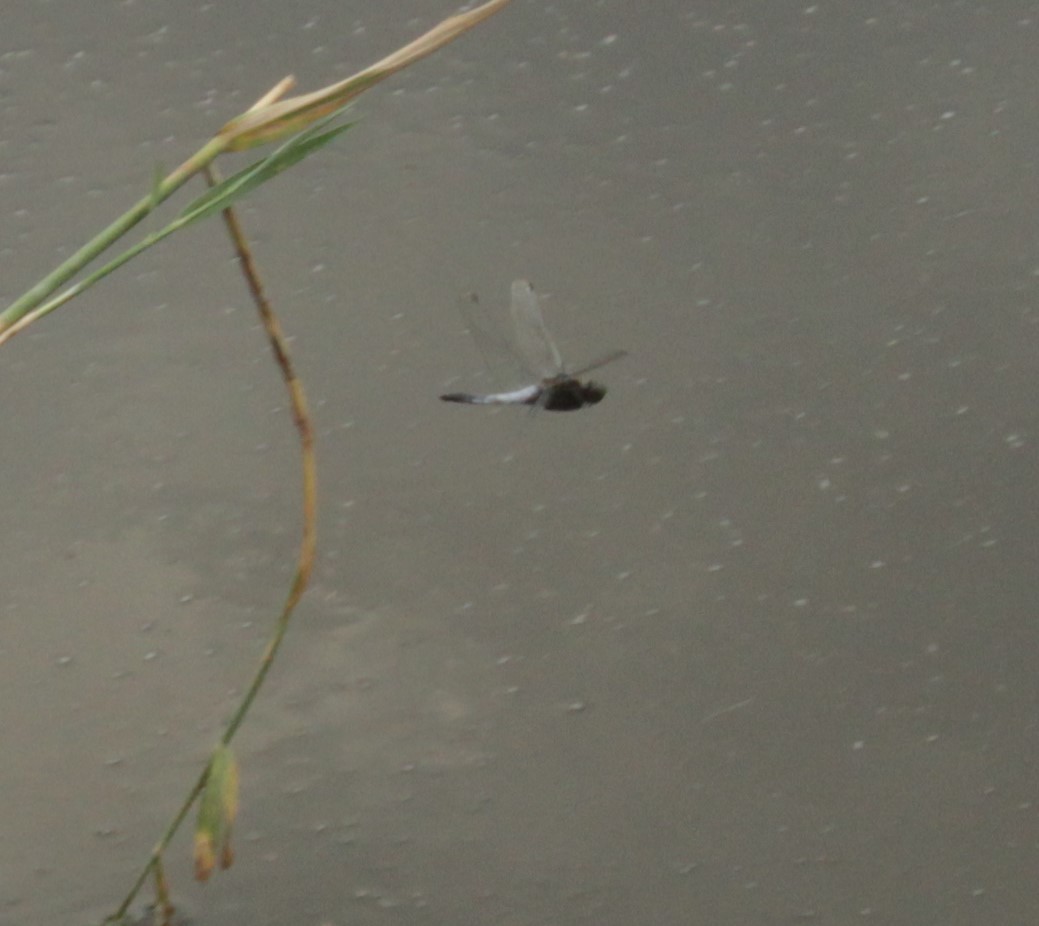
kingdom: Animalia
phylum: Arthropoda
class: Insecta
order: Odonata
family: Libellulidae
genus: Orthetrum
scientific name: Orthetrum cancellatum
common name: Black-tailed skimmer
